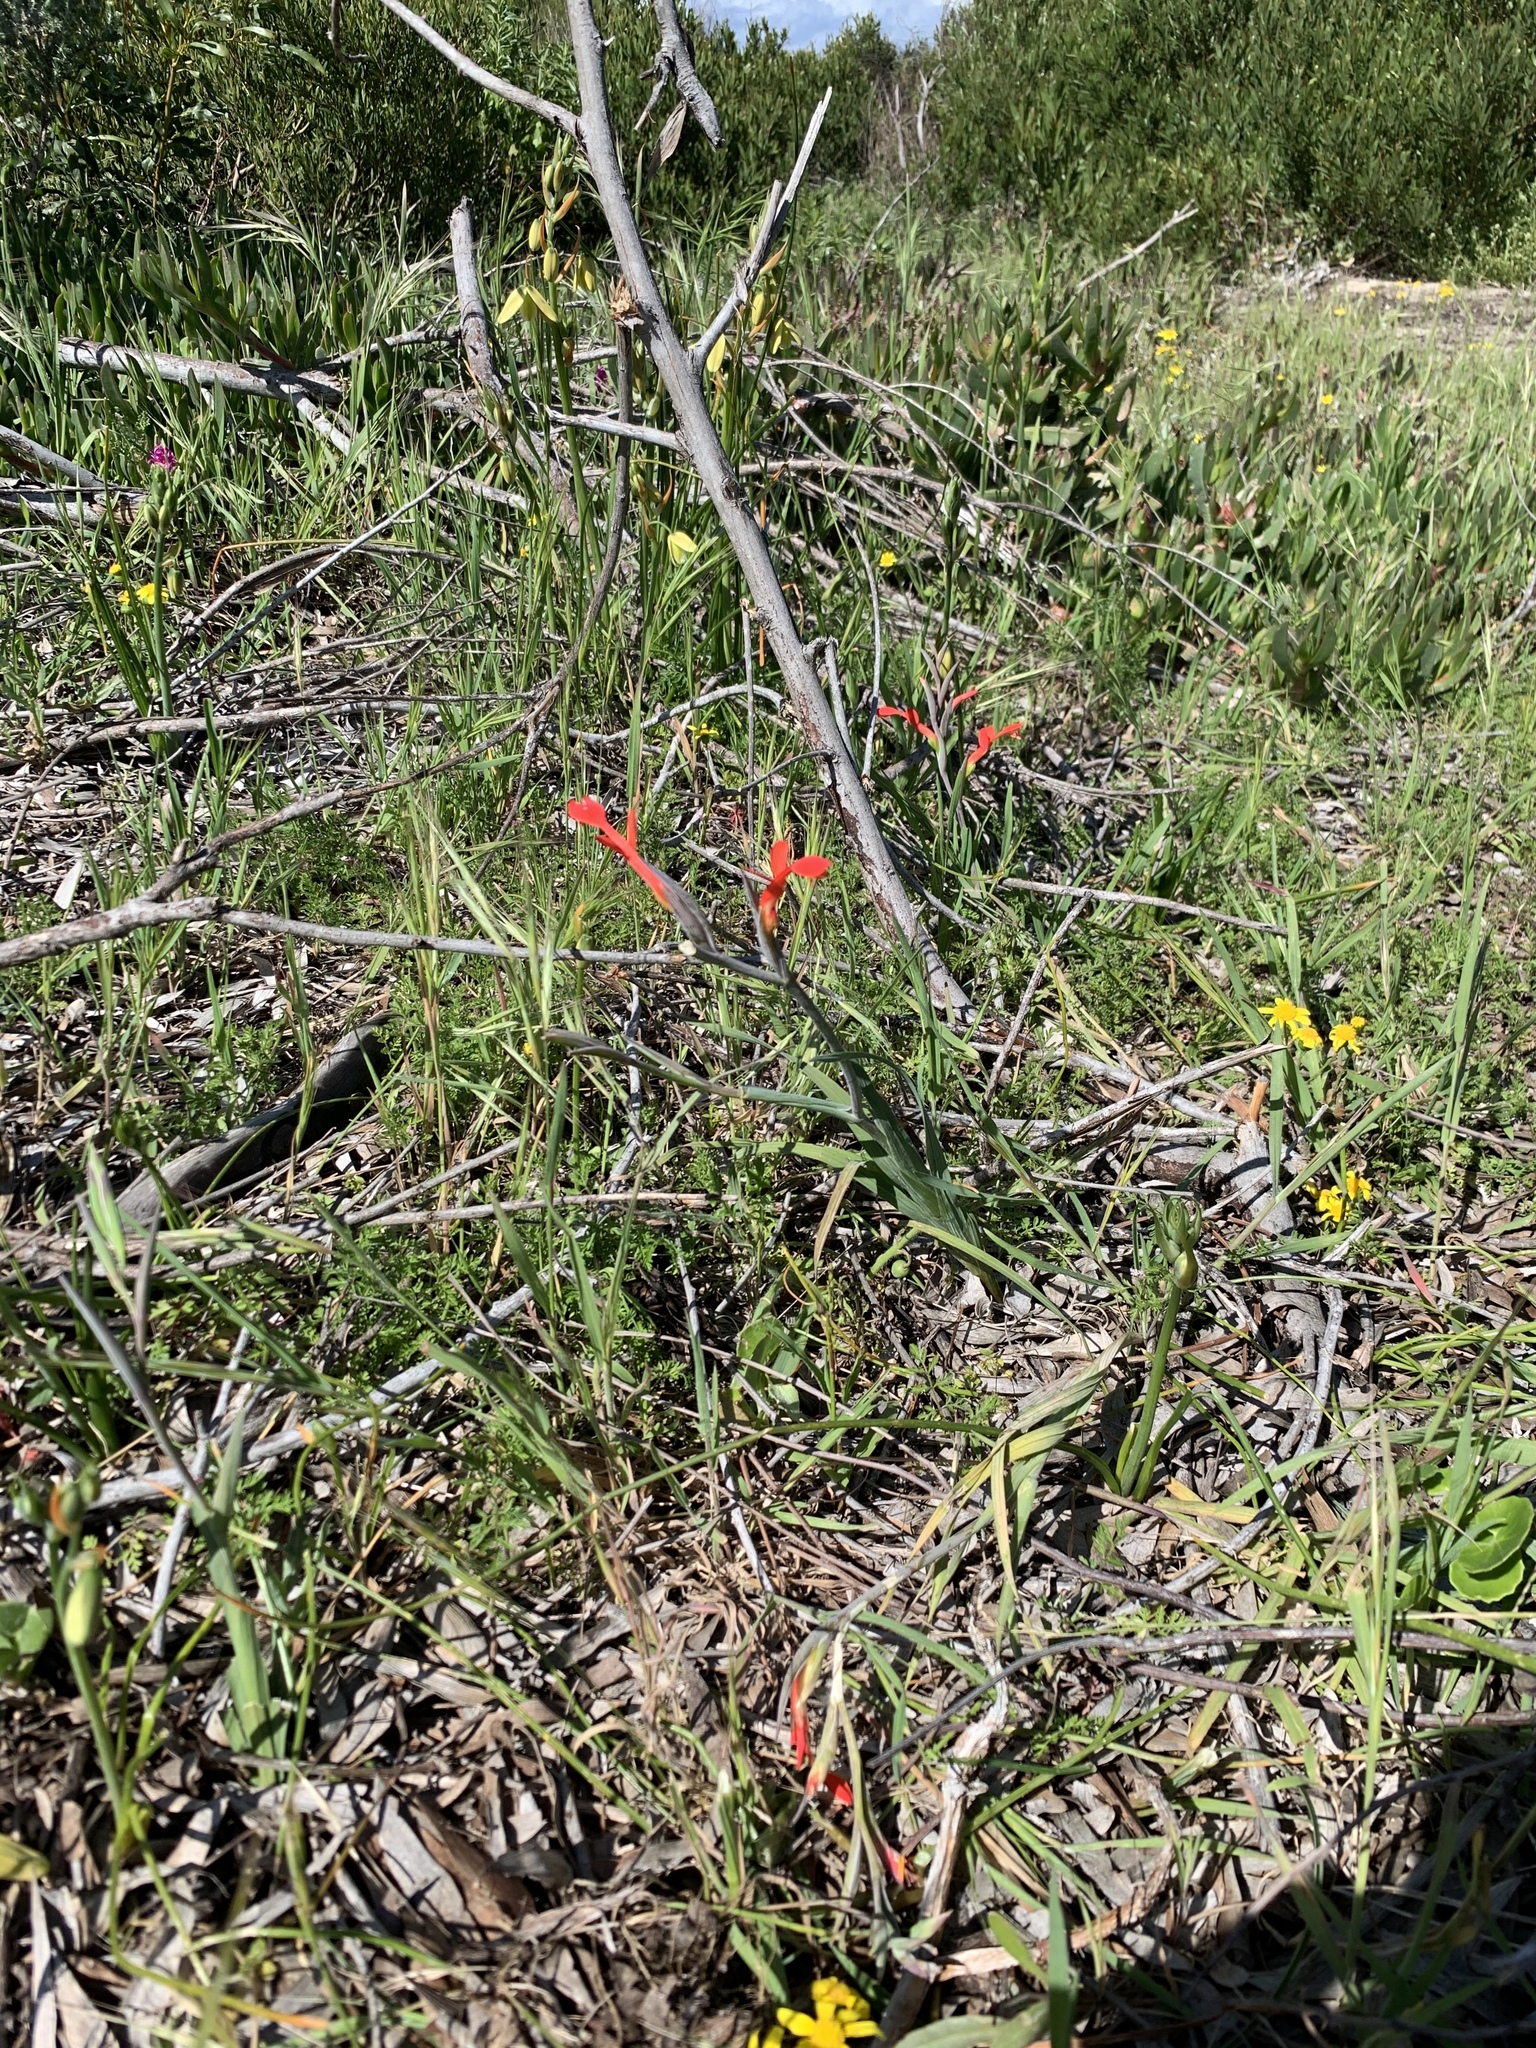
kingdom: Plantae
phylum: Tracheophyta
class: Liliopsida
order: Asparagales
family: Iridaceae
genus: Gladiolus
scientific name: Gladiolus cunonius
